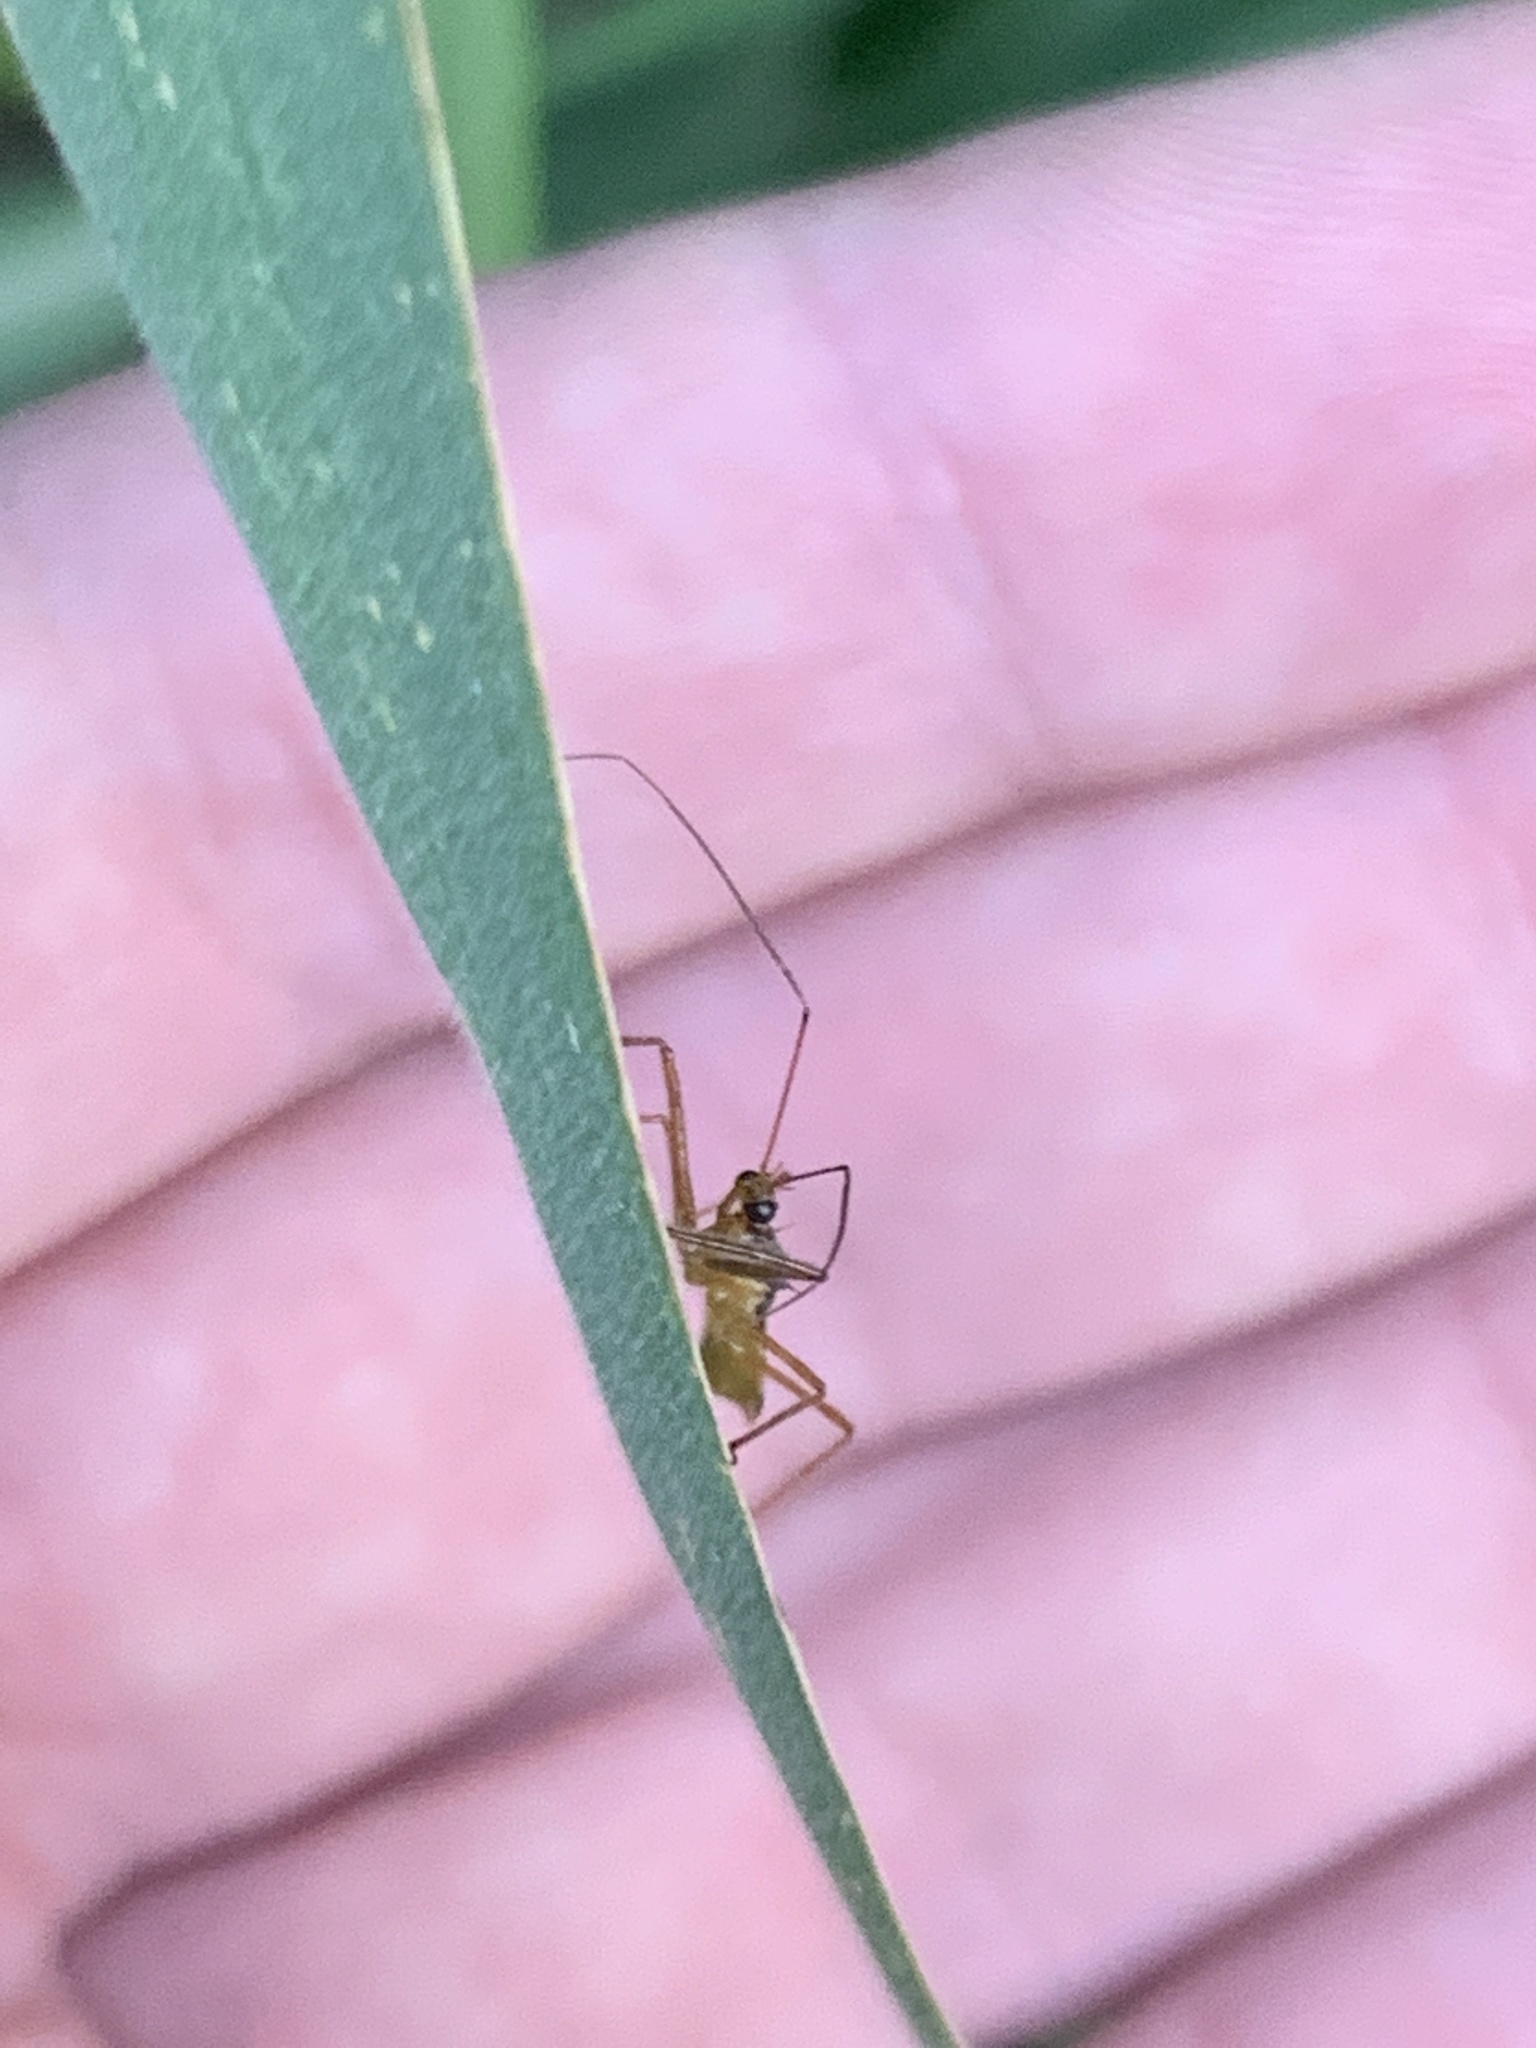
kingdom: Animalia
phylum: Arthropoda
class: Insecta
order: Hemiptera
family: Reduviidae
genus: Repipta
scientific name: Repipta flavicans
